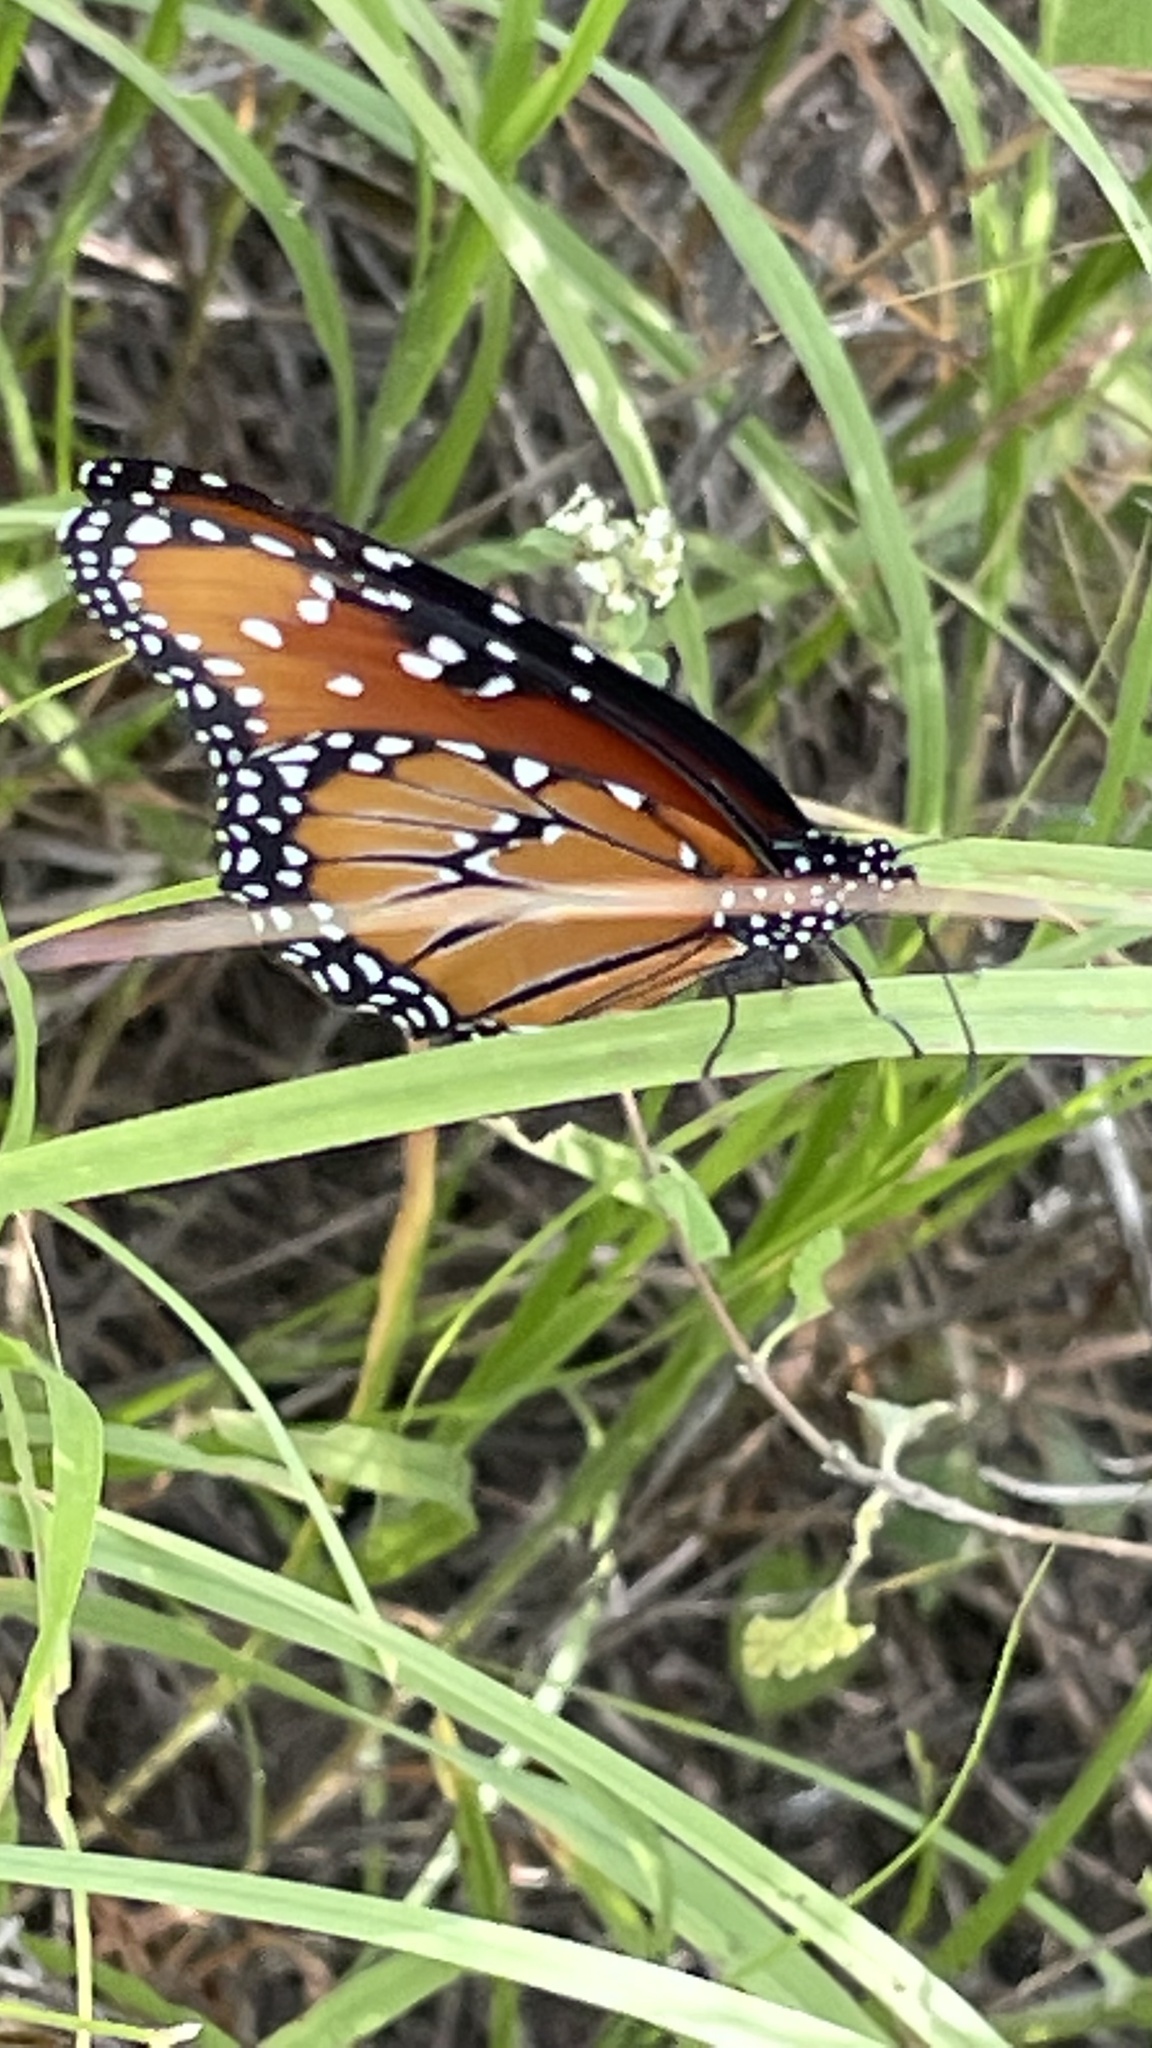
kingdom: Animalia
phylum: Arthropoda
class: Insecta
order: Lepidoptera
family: Nymphalidae
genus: Danaus
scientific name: Danaus gilippus
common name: Queen
